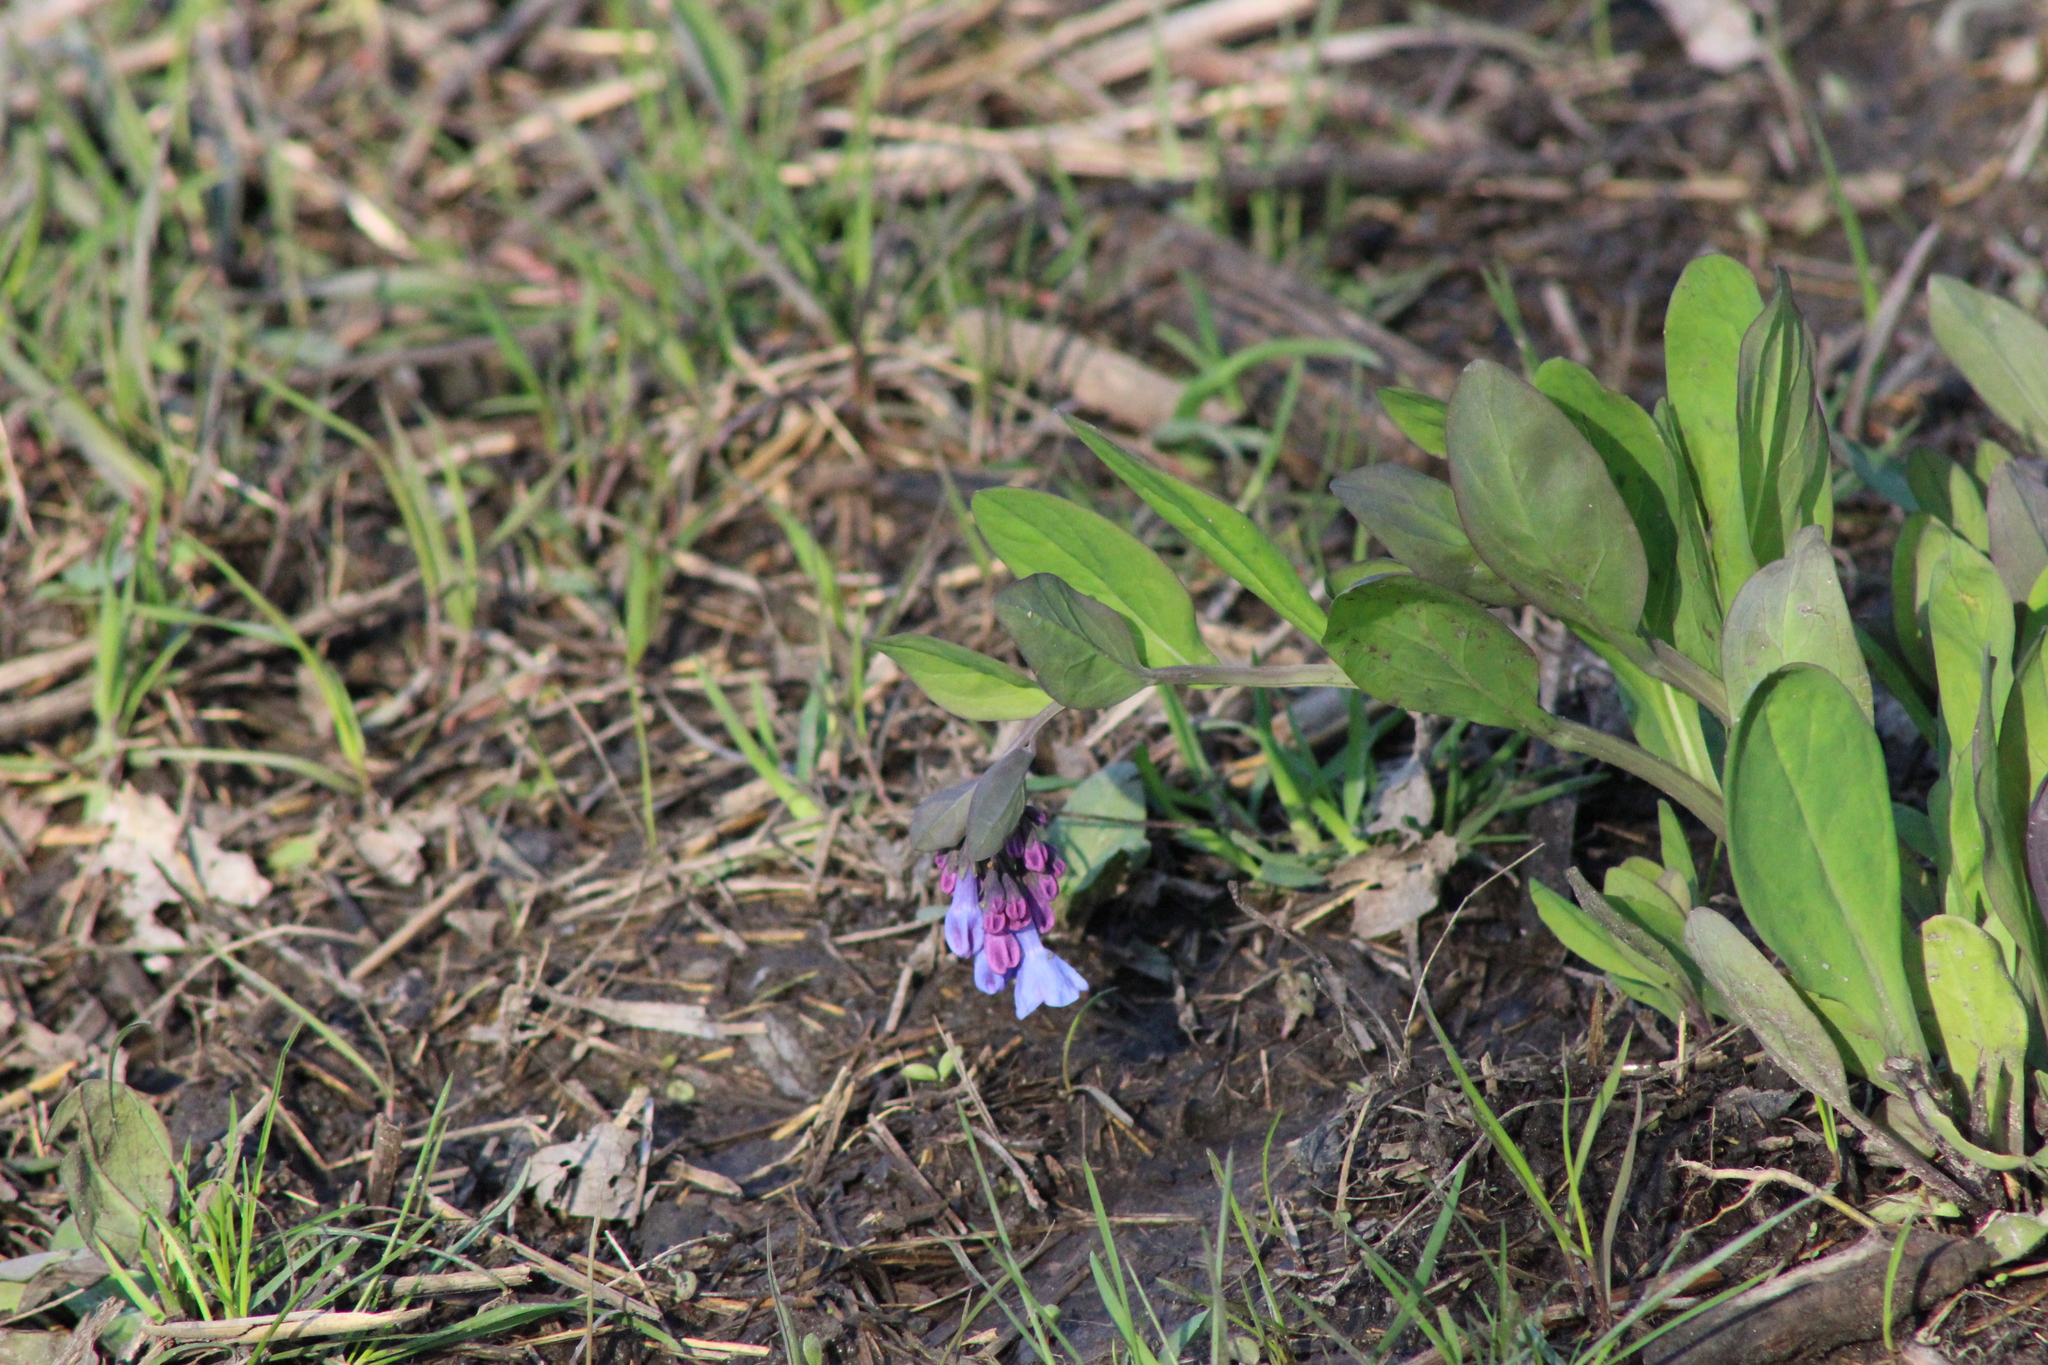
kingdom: Plantae
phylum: Tracheophyta
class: Magnoliopsida
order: Boraginales
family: Boraginaceae
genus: Mertensia
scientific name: Mertensia virginica
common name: Virginia bluebells
